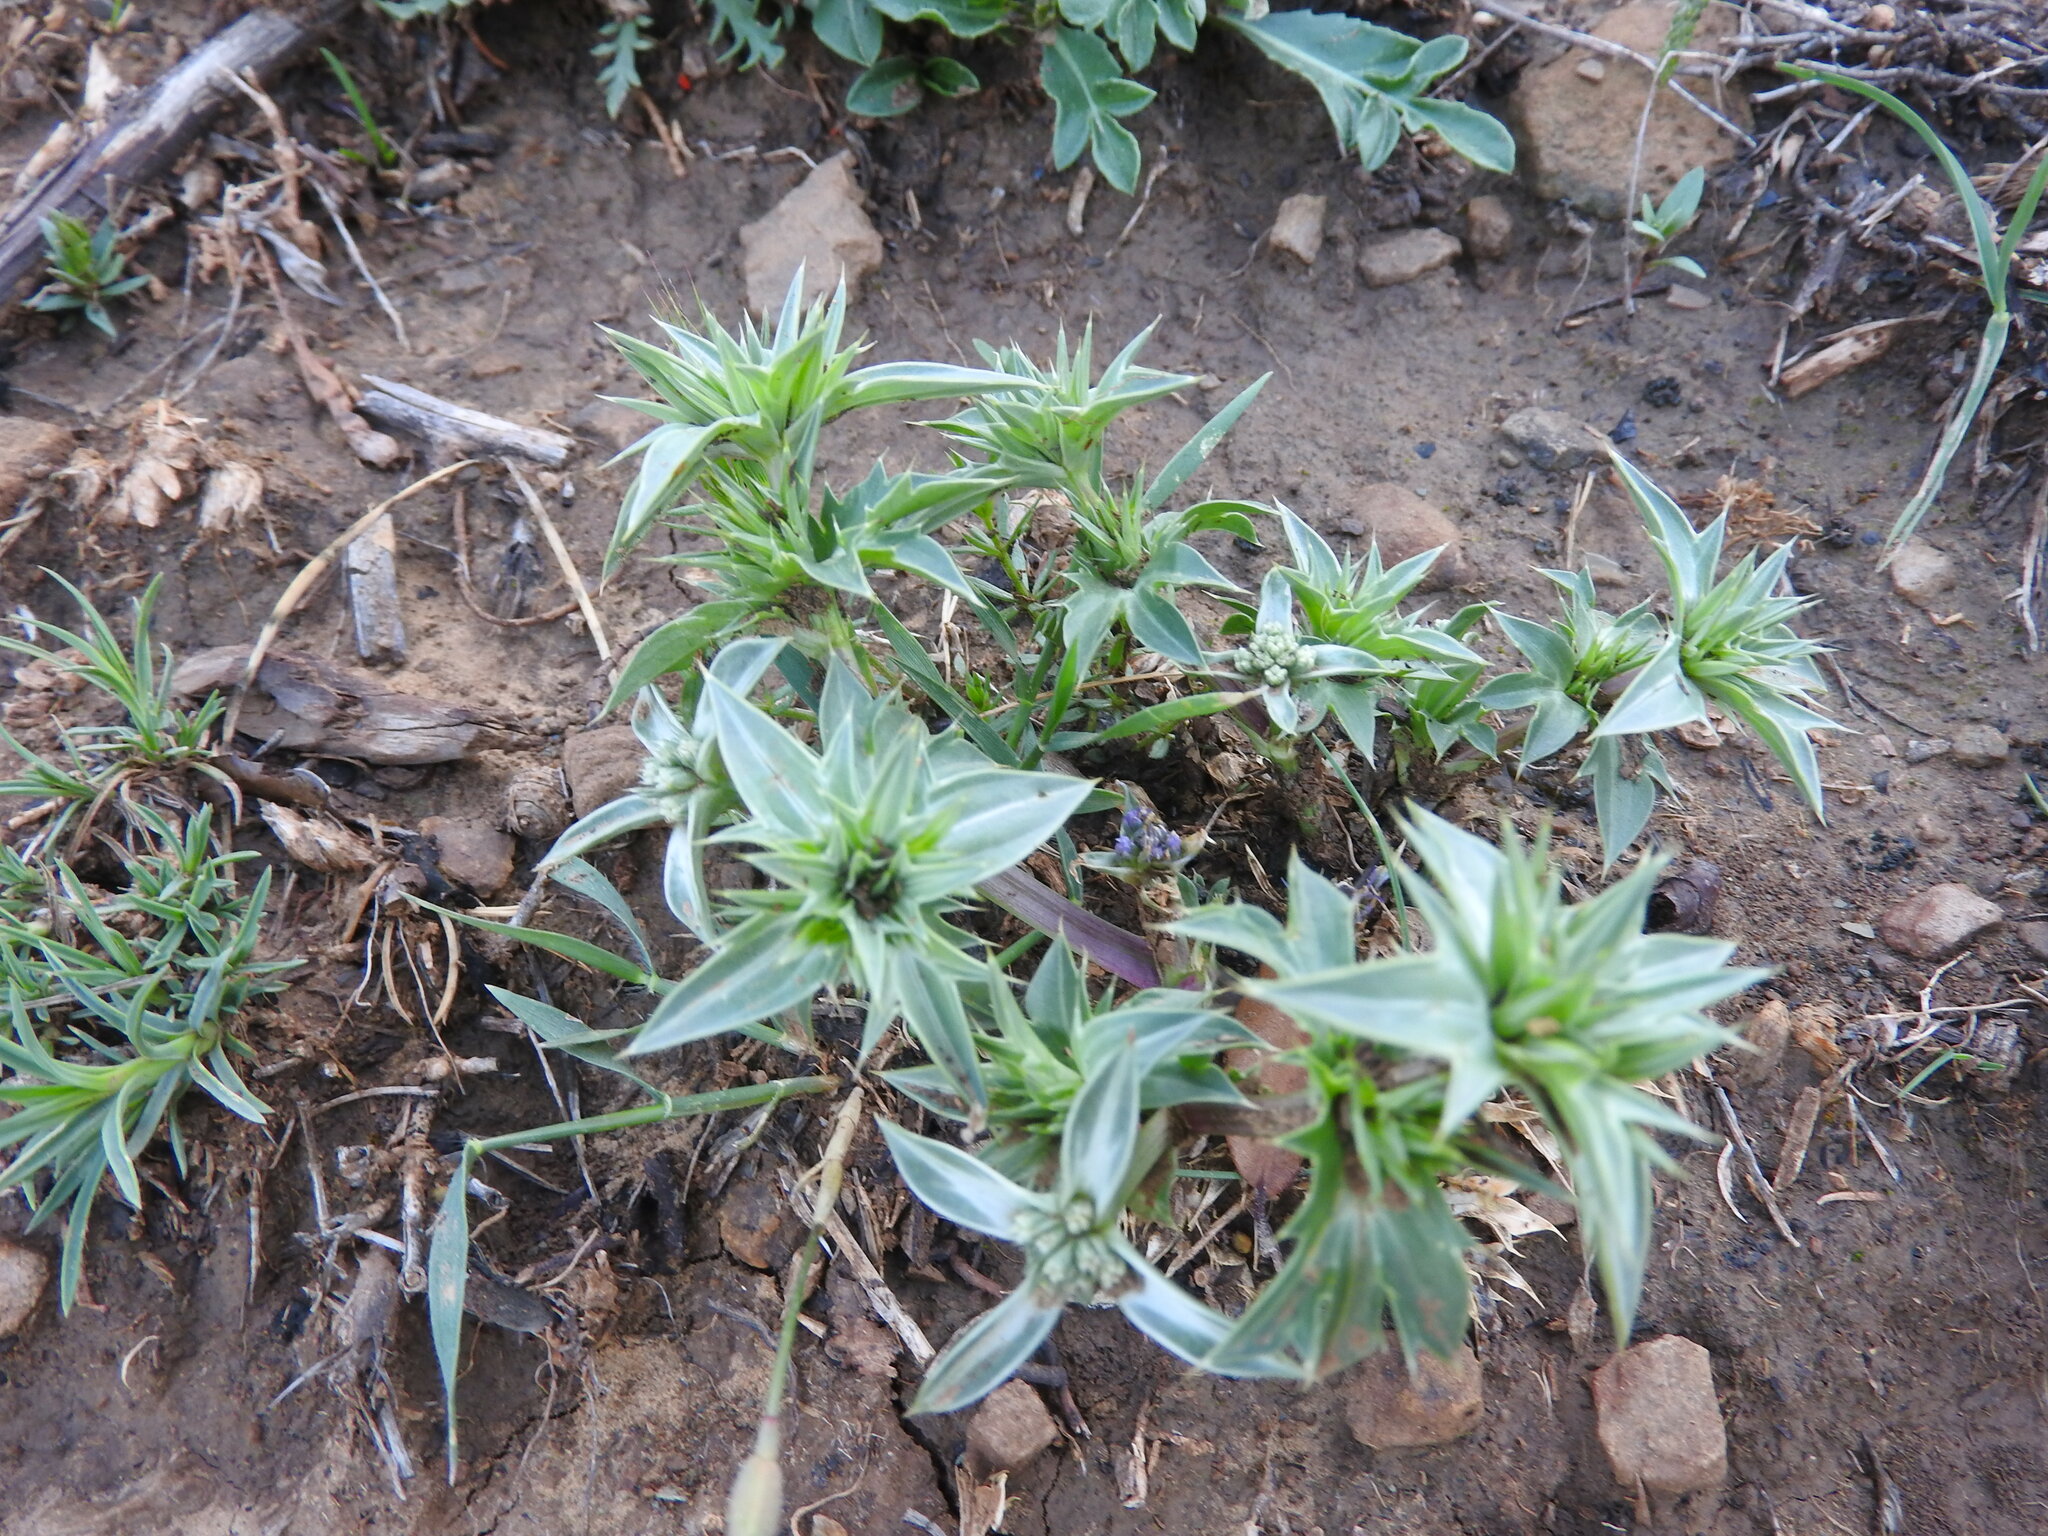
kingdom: Plantae
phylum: Tracheophyta
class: Magnoliopsida
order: Apiales
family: Apiaceae
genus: Eryngium
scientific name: Eryngium triquetrum
